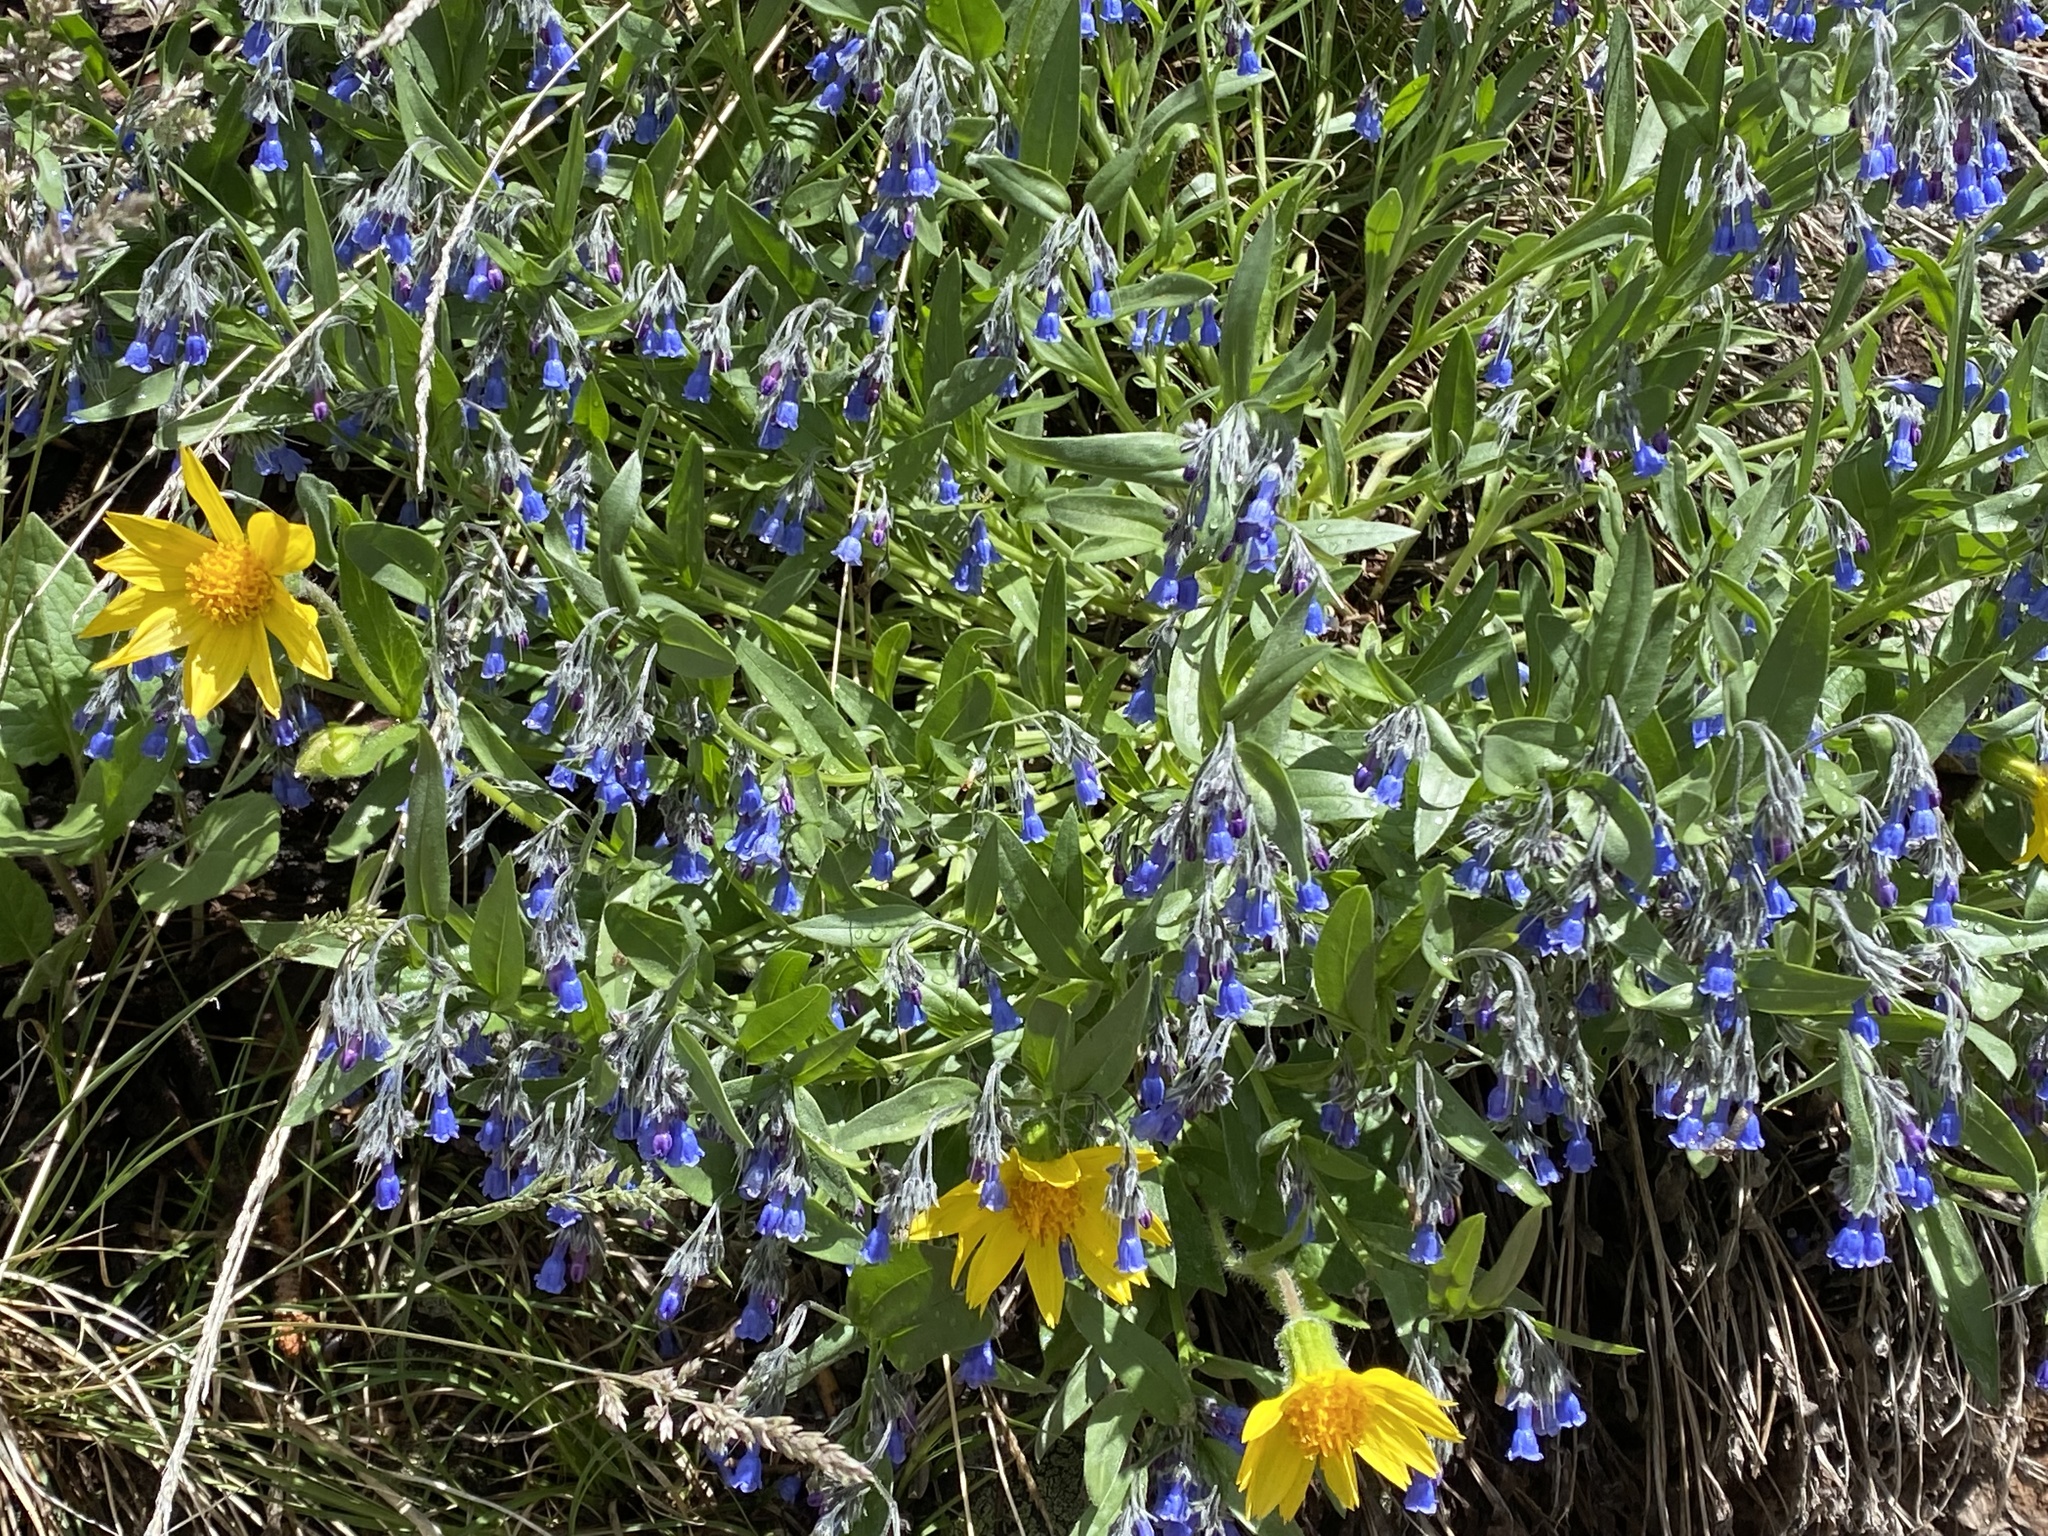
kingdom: Plantae
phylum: Tracheophyta
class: Magnoliopsida
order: Boraginales
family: Boraginaceae
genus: Mertensia
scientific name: Mertensia lanceolata
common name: Lance-leaved bluebells
